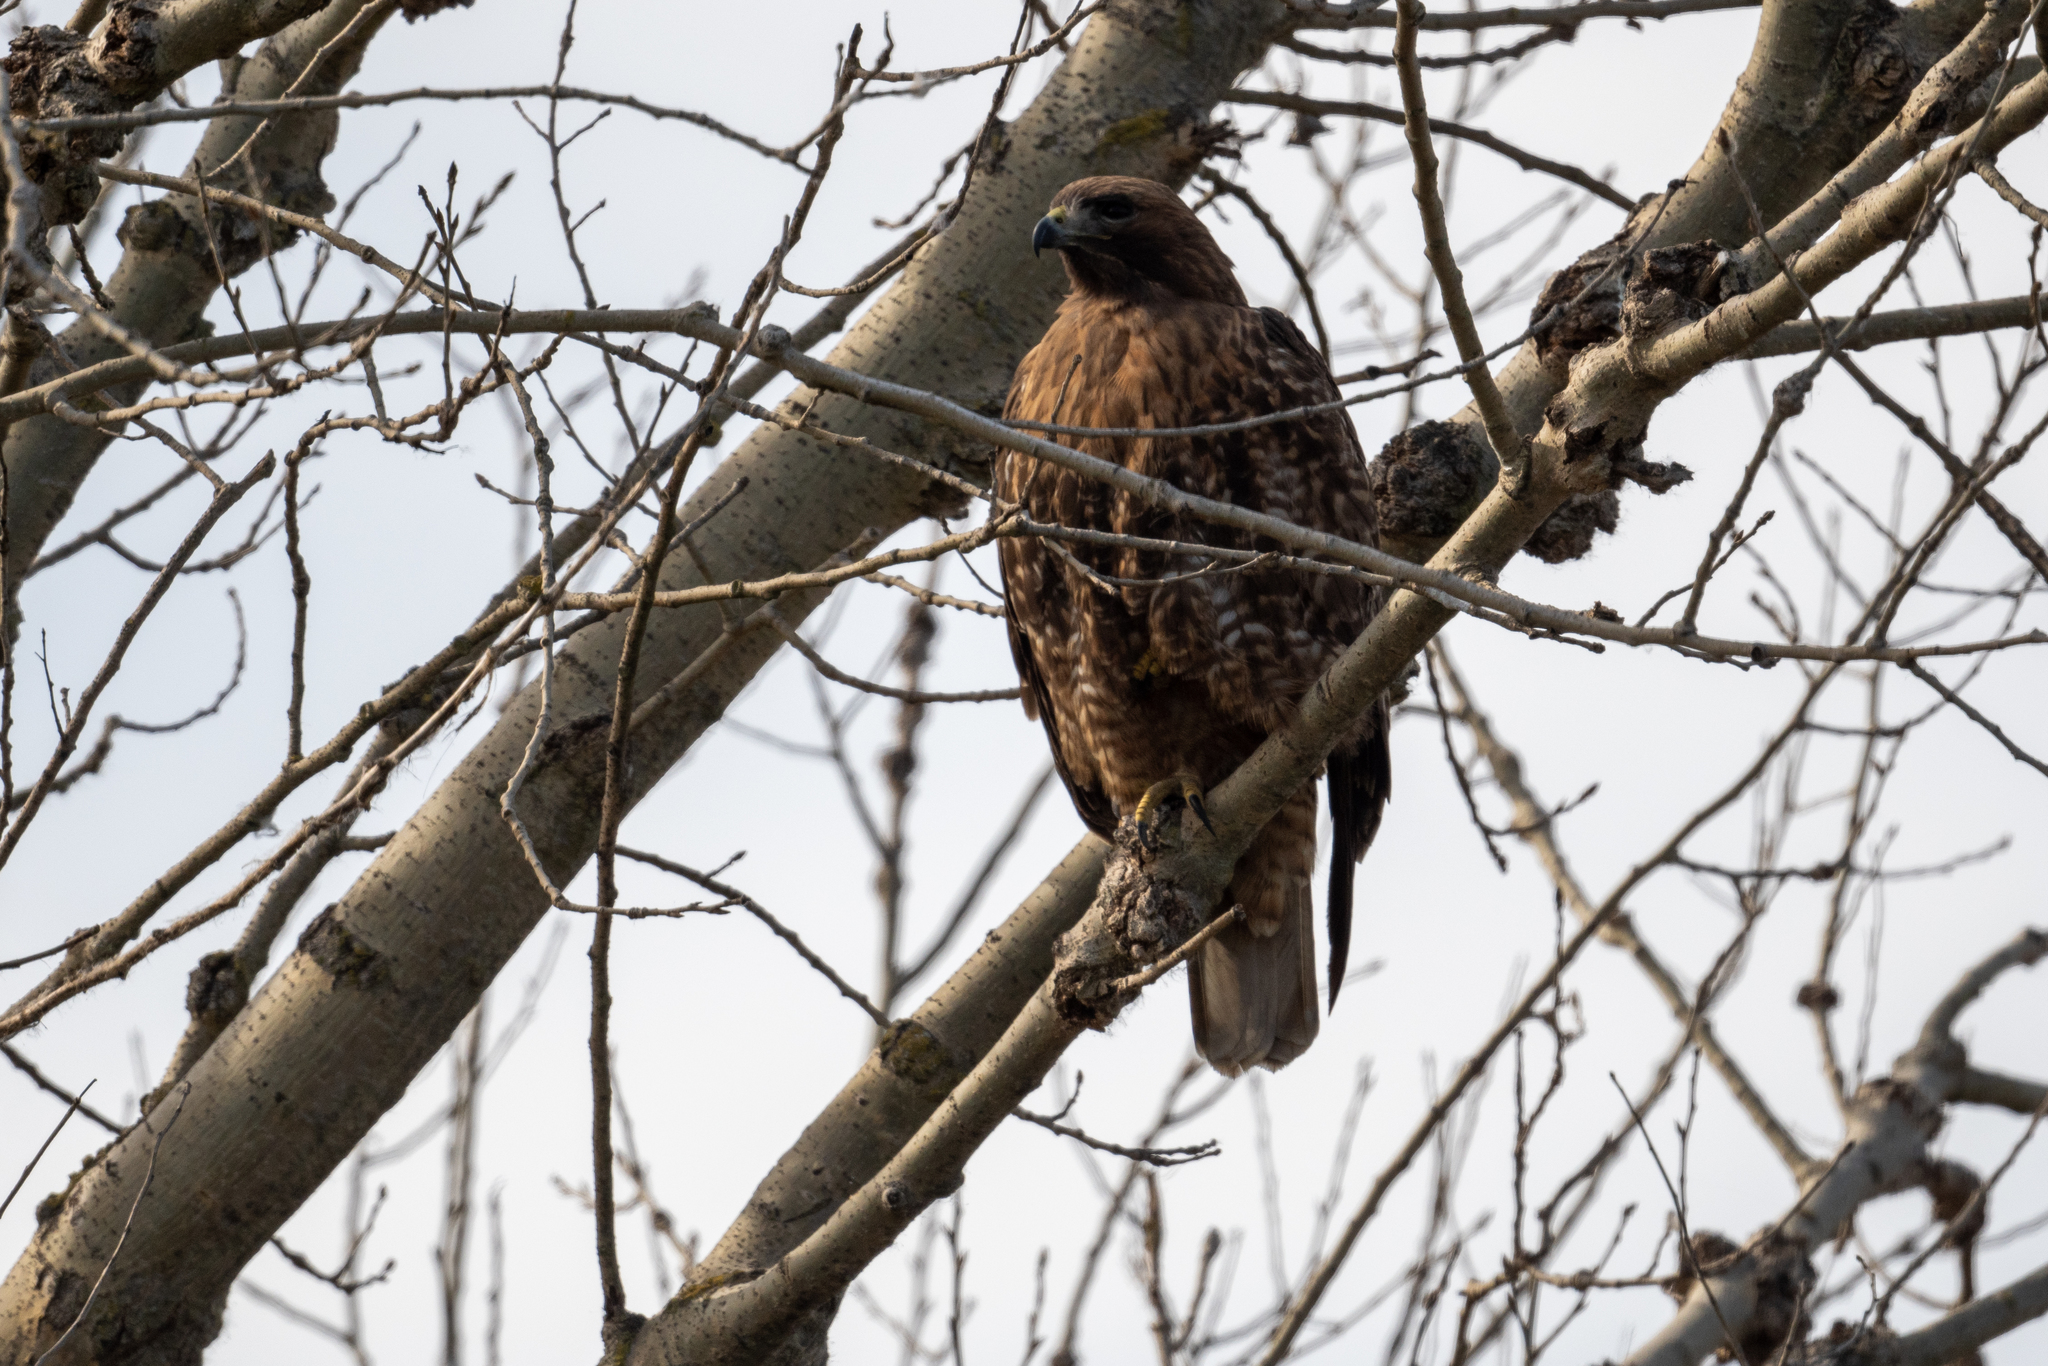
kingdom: Animalia
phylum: Chordata
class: Aves
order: Accipitriformes
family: Accipitridae
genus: Buteo
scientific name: Buteo jamaicensis
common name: Red-tailed hawk
